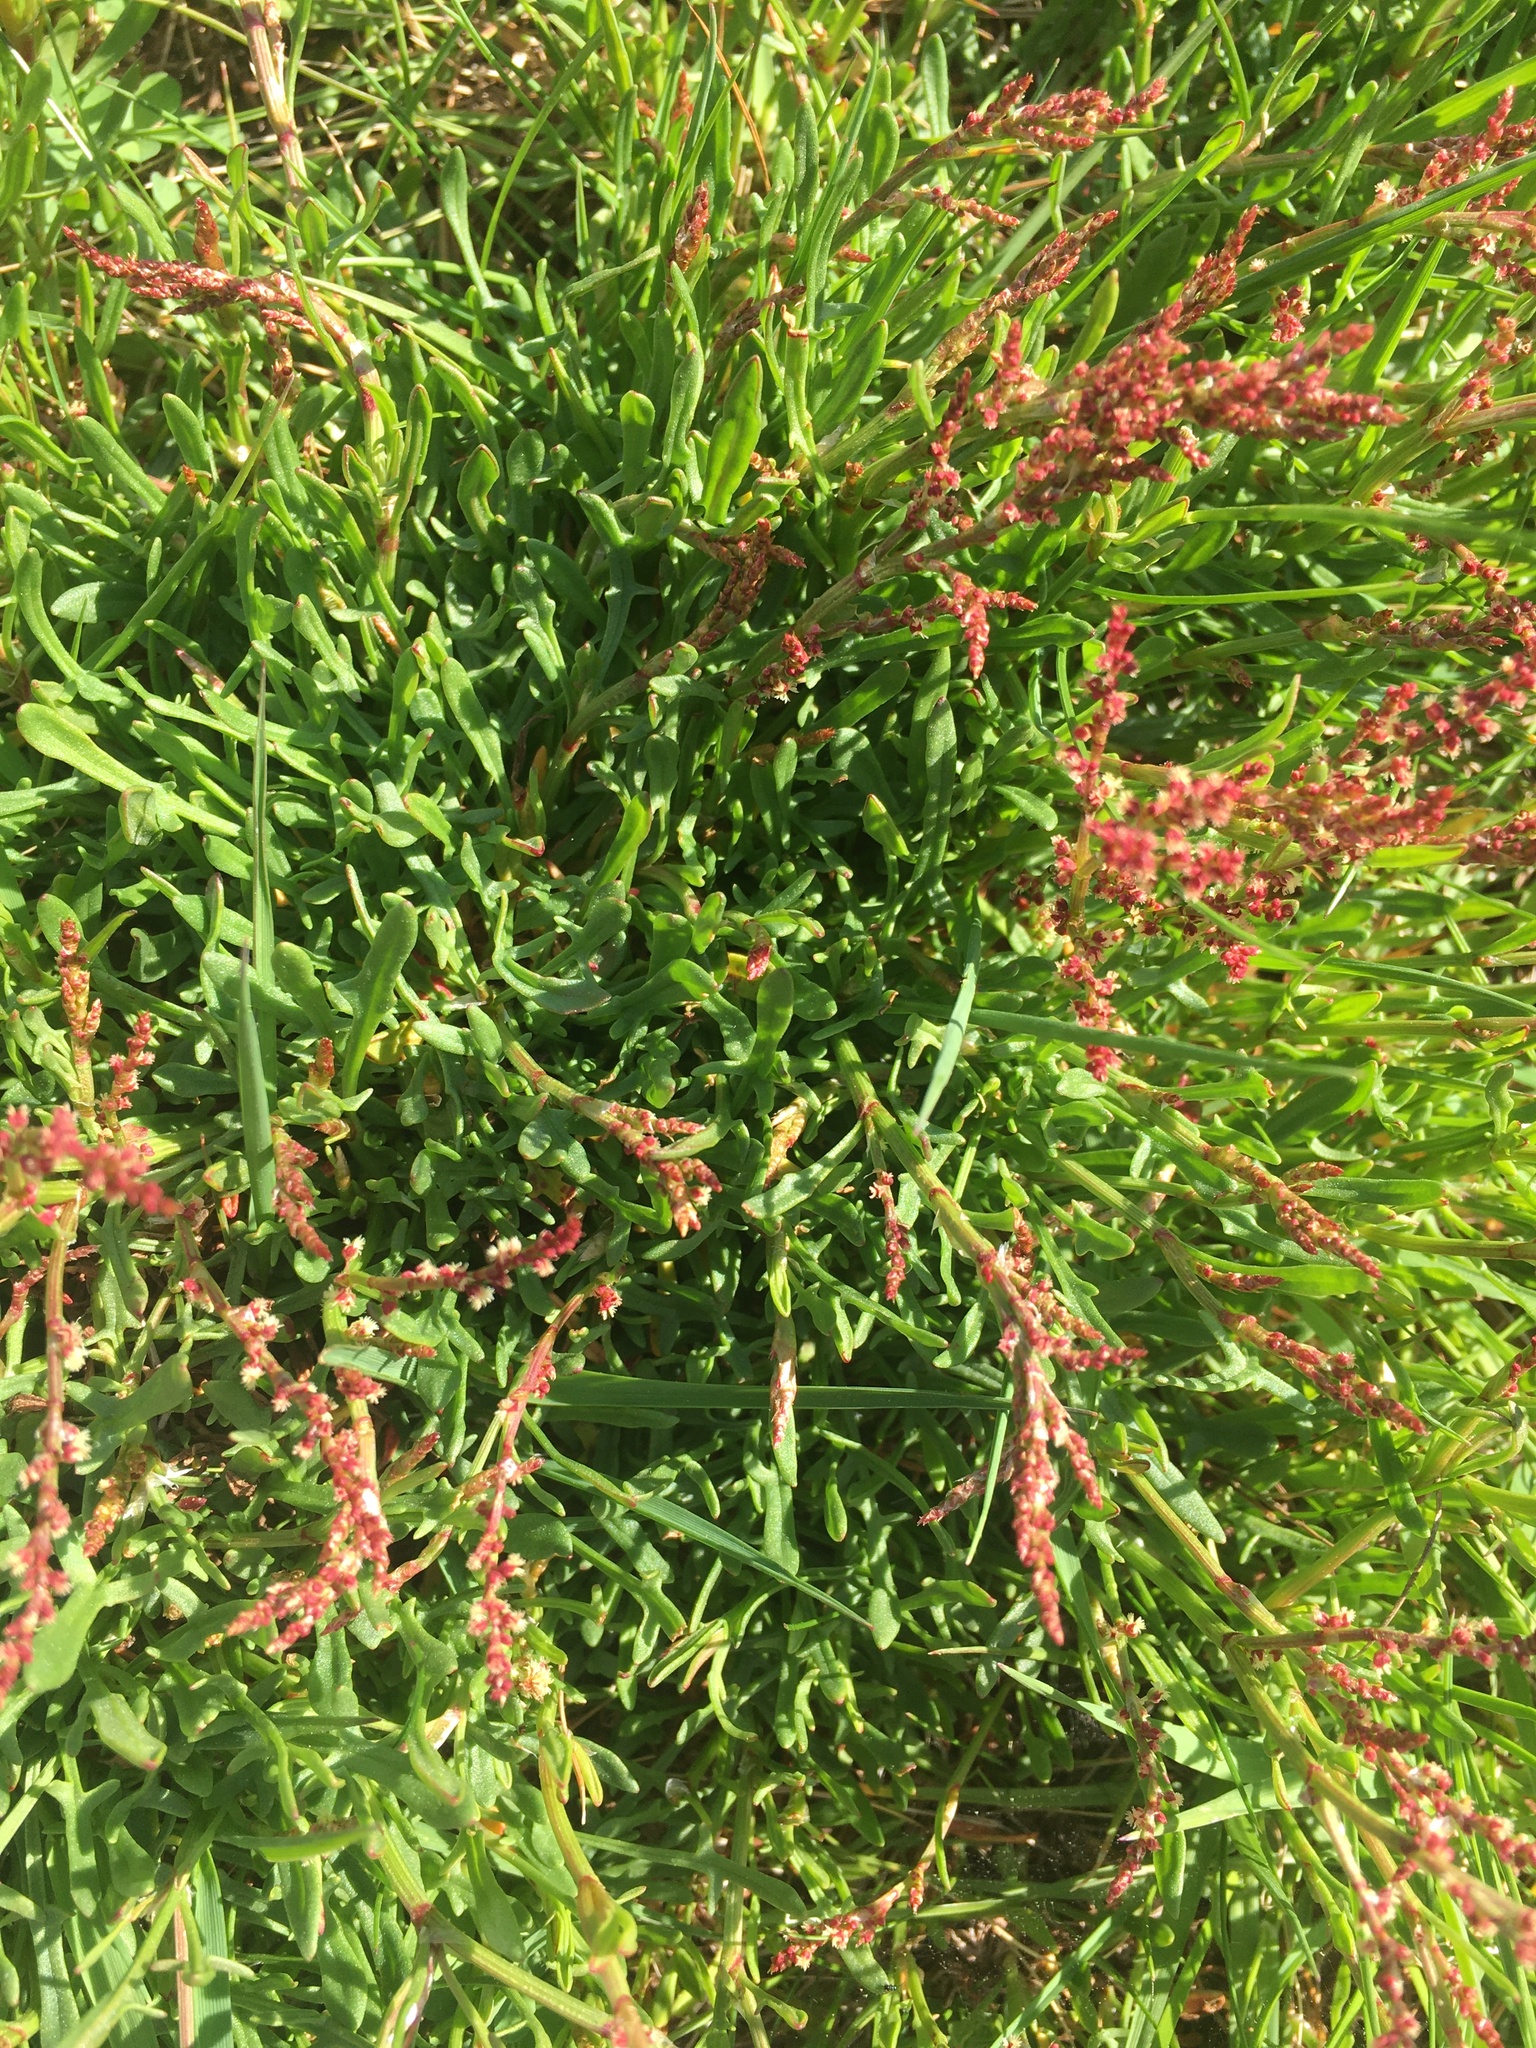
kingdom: Plantae
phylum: Tracheophyta
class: Magnoliopsida
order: Caryophyllales
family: Polygonaceae
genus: Rumex
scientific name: Rumex acetosella
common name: Common sheep sorrel
